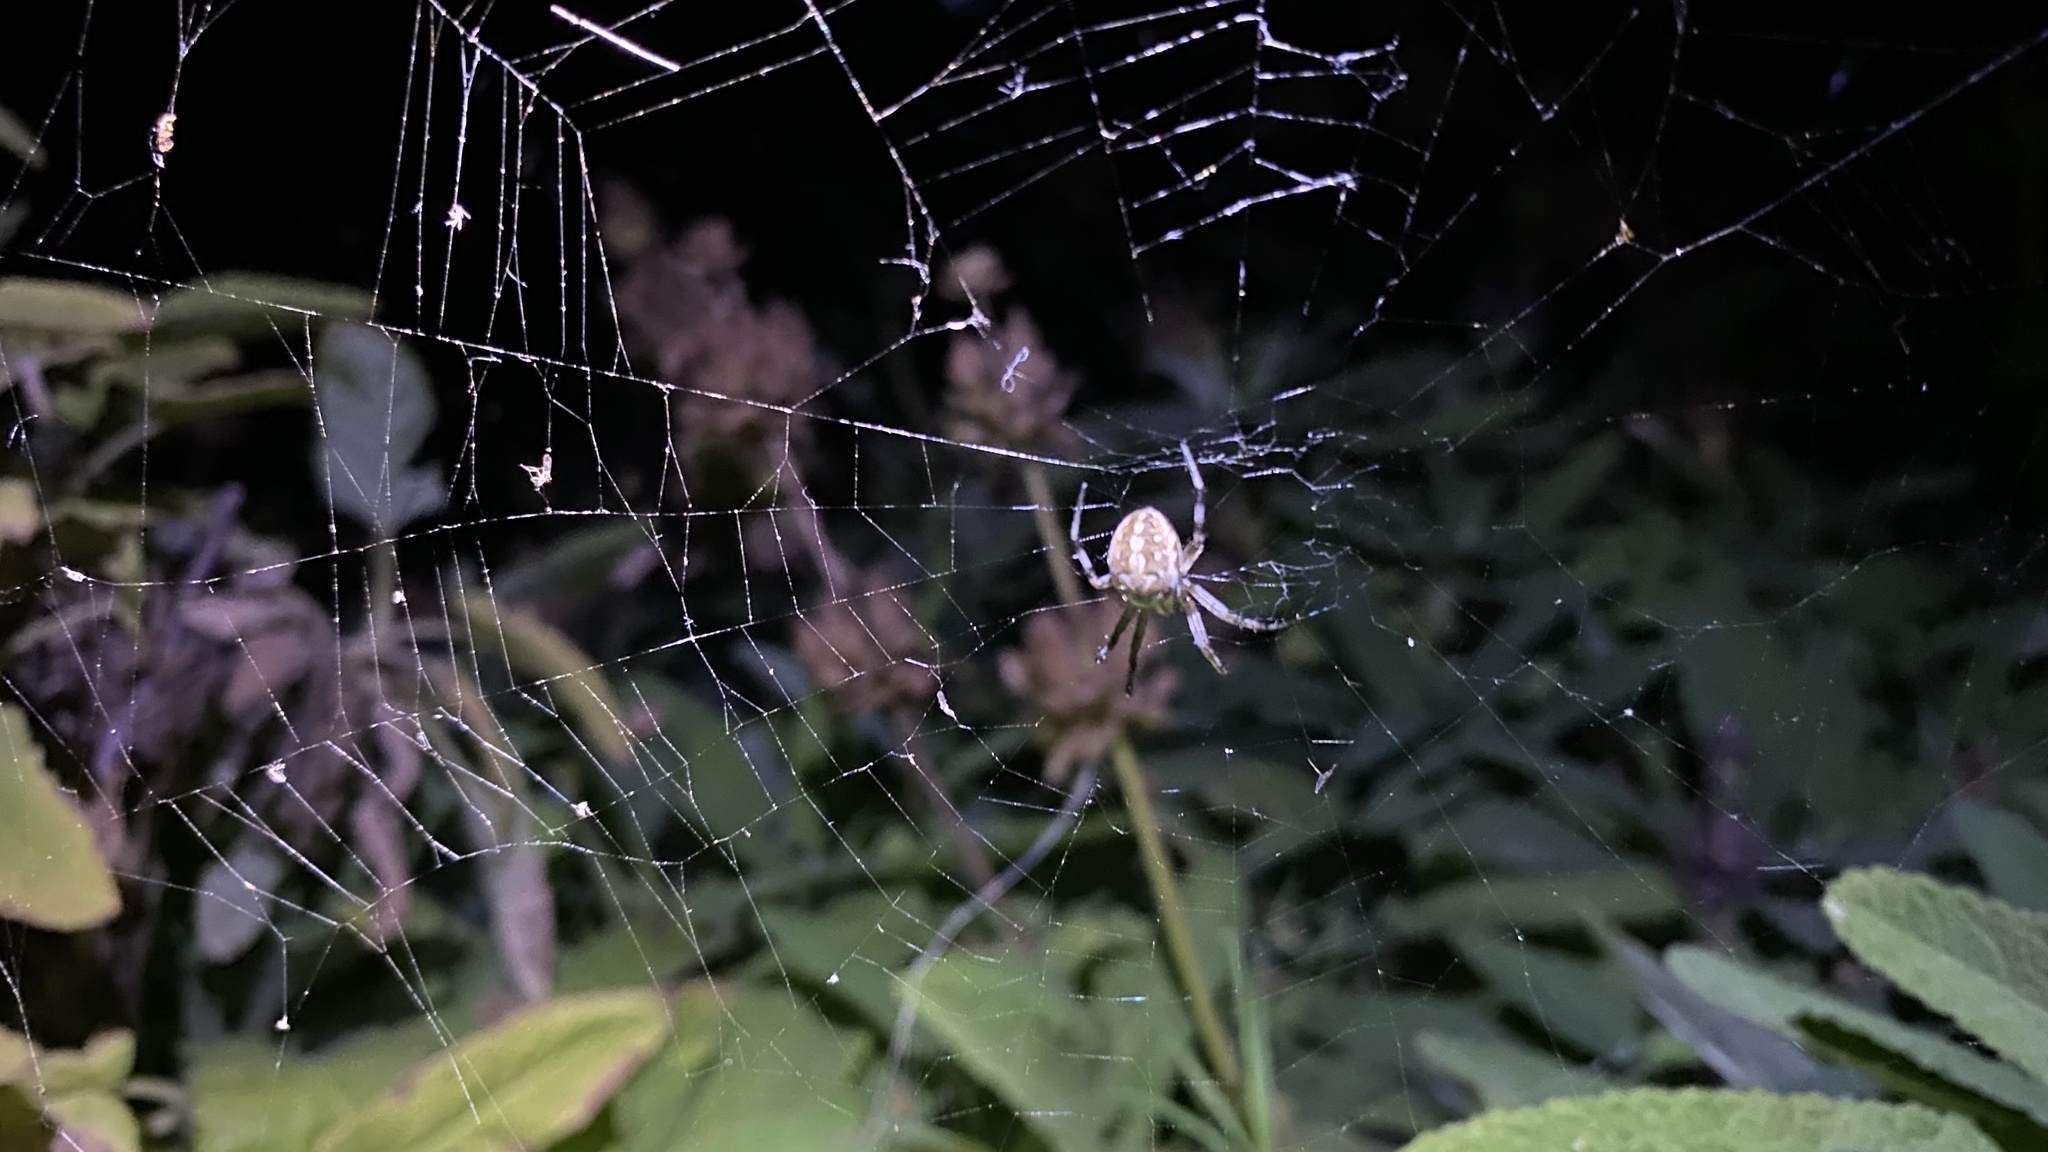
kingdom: Animalia
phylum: Arthropoda
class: Arachnida
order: Araneae
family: Araneidae
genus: Neoscona
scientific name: Neoscona oaxacensis
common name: Orb weavers
